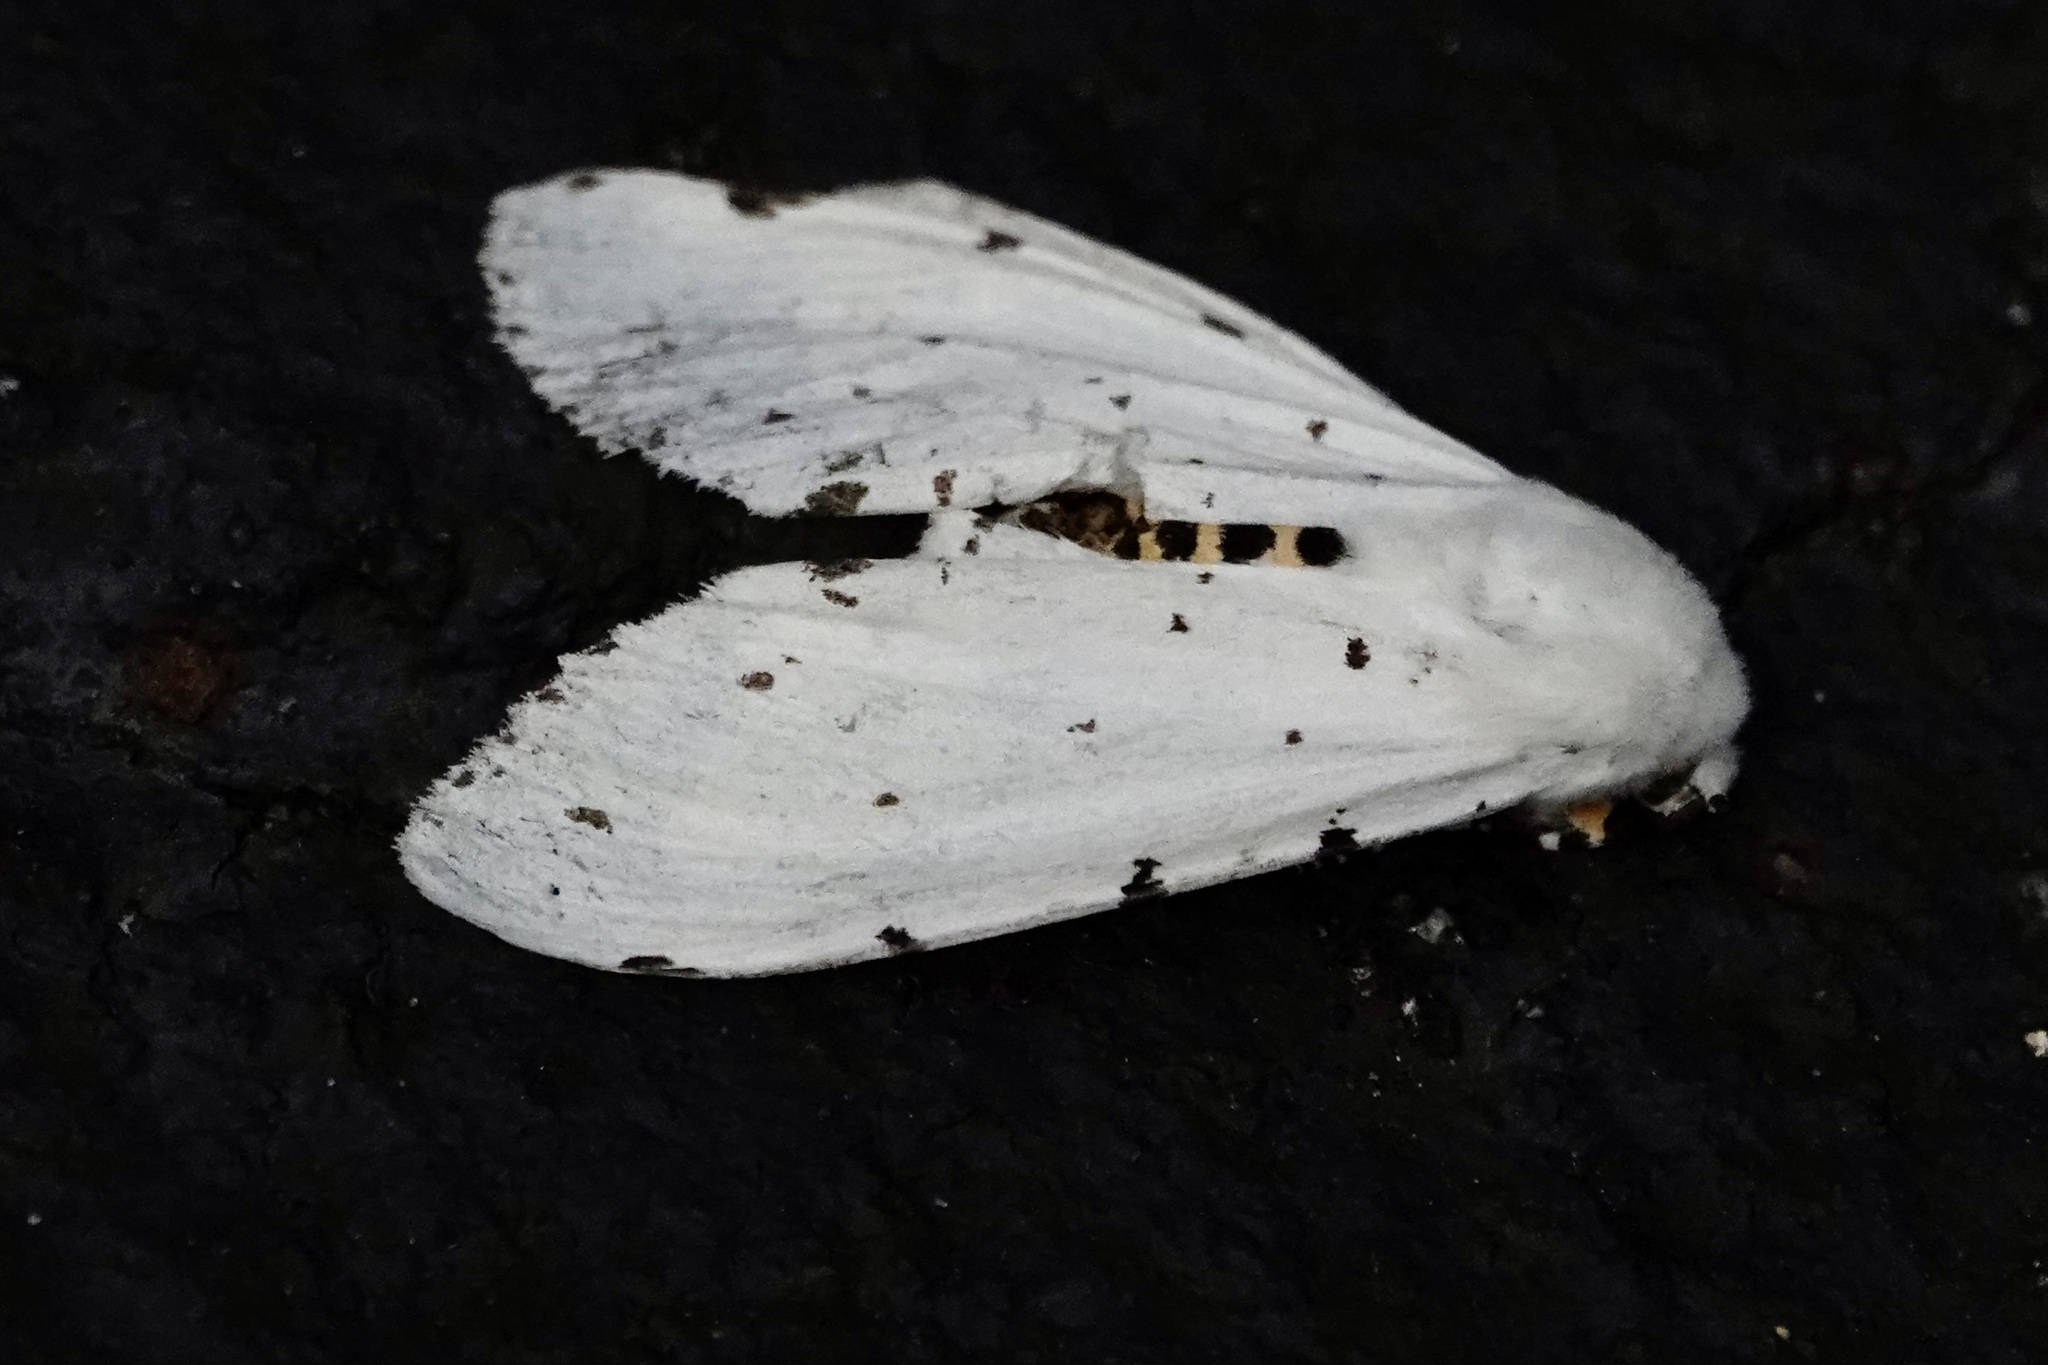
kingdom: Animalia
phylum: Arthropoda
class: Insecta
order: Lepidoptera
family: Erebidae
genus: Estigmene
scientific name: Estigmene acrea
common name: Salt marsh moth
